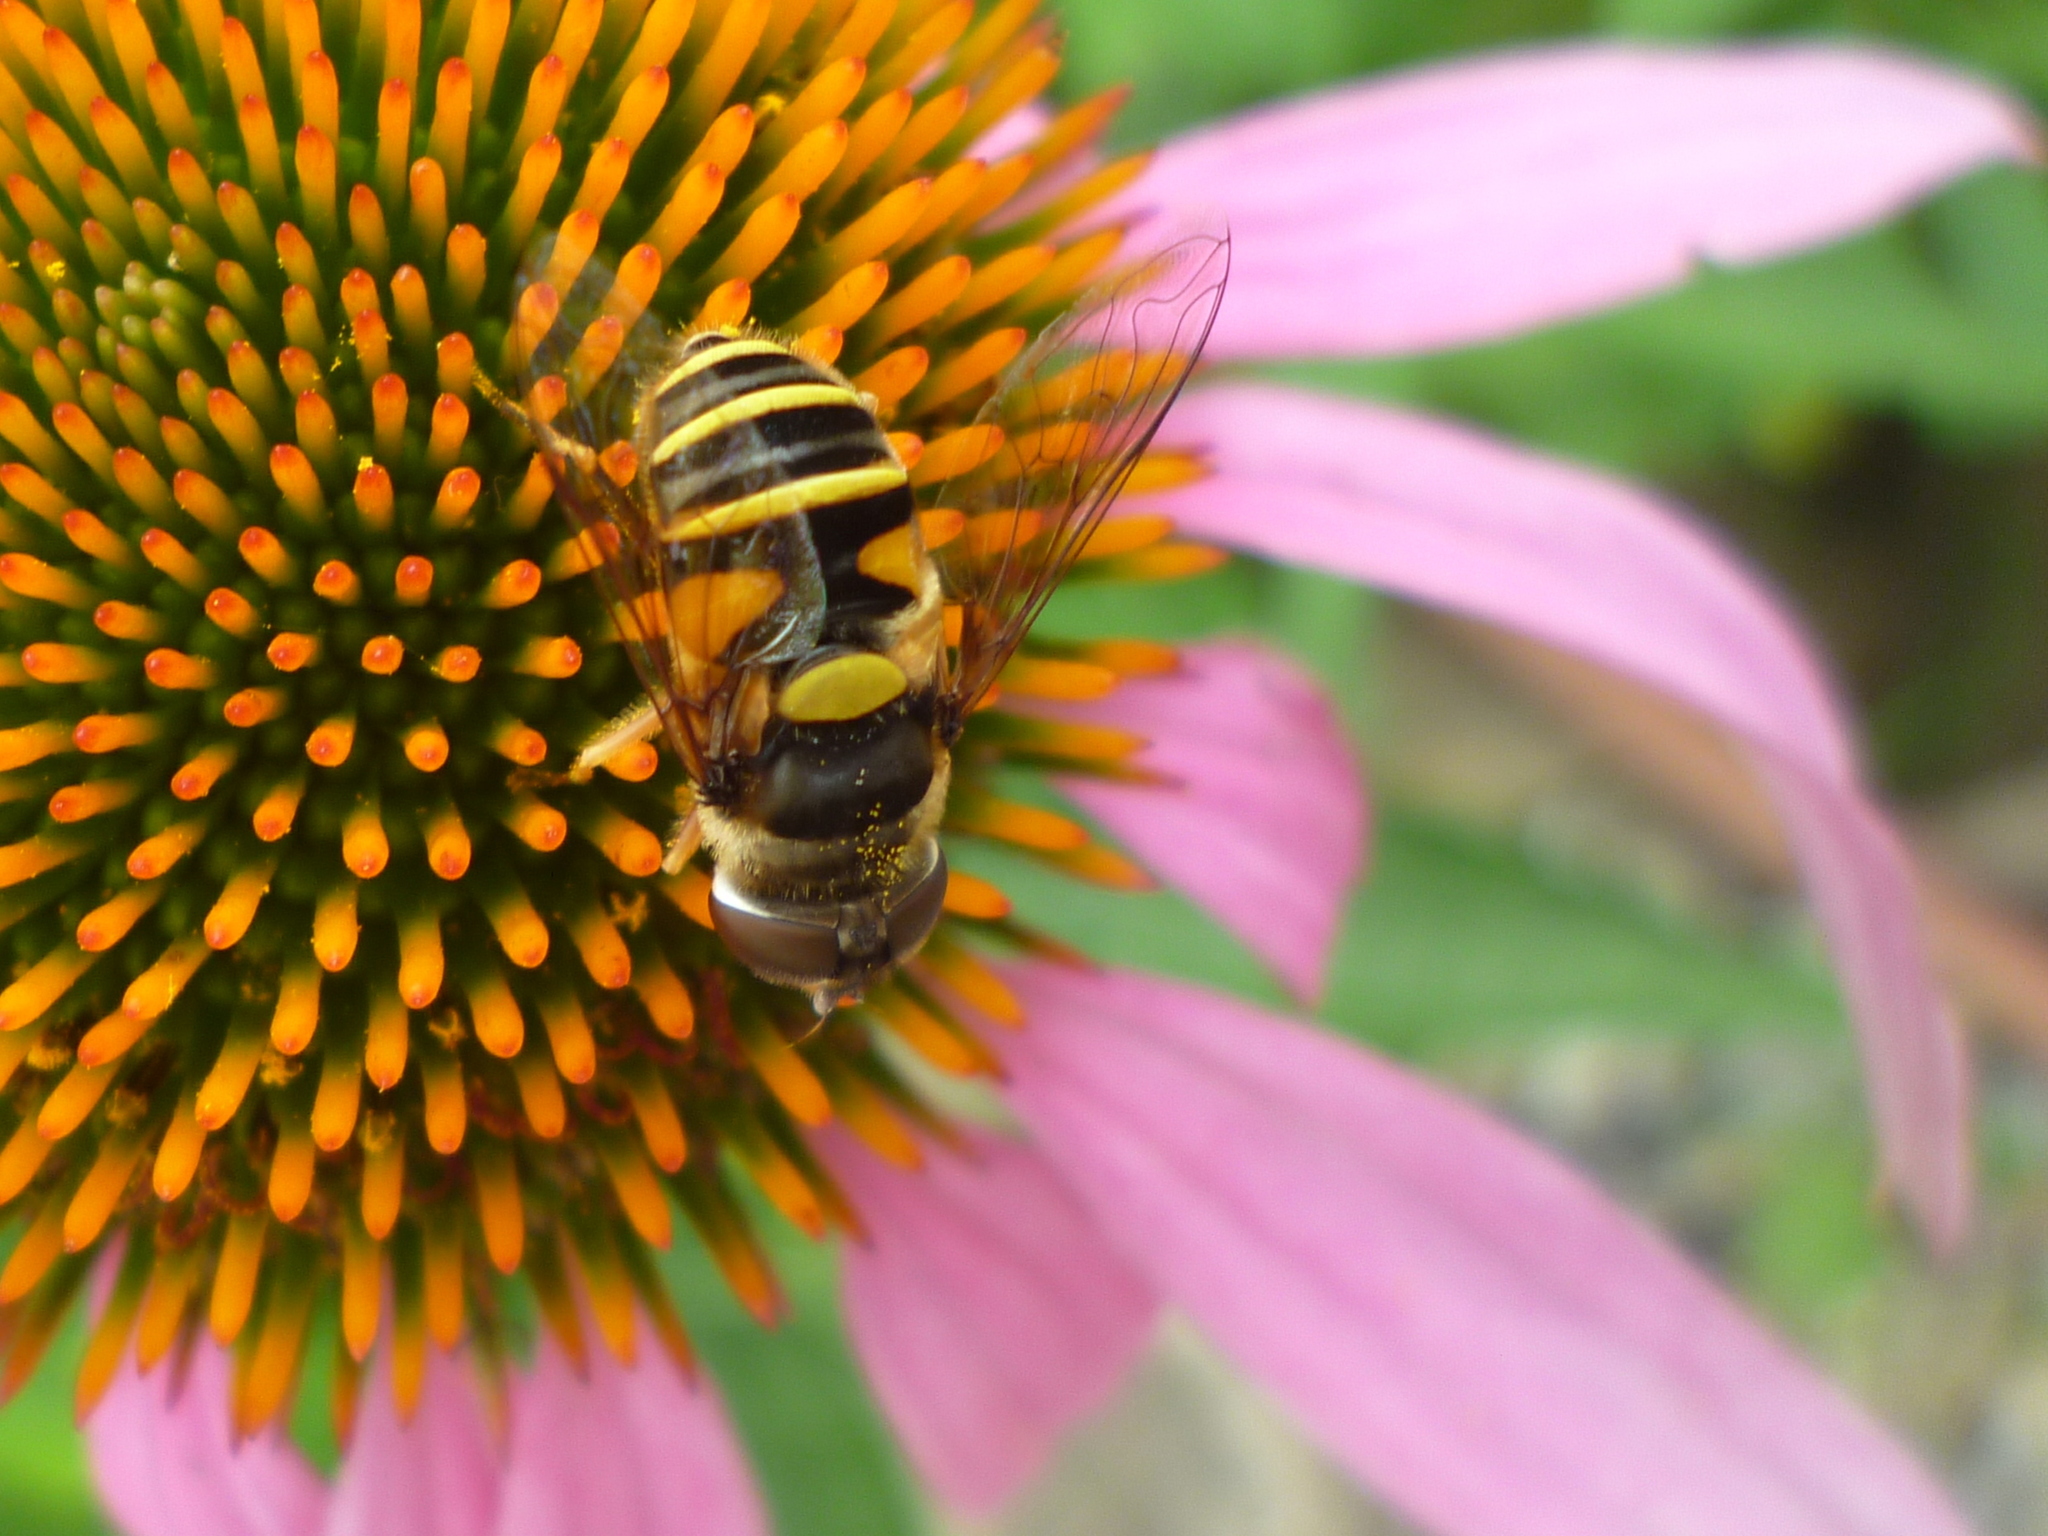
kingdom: Animalia
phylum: Arthropoda
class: Insecta
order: Diptera
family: Syrphidae
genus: Eristalis
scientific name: Eristalis transversa
